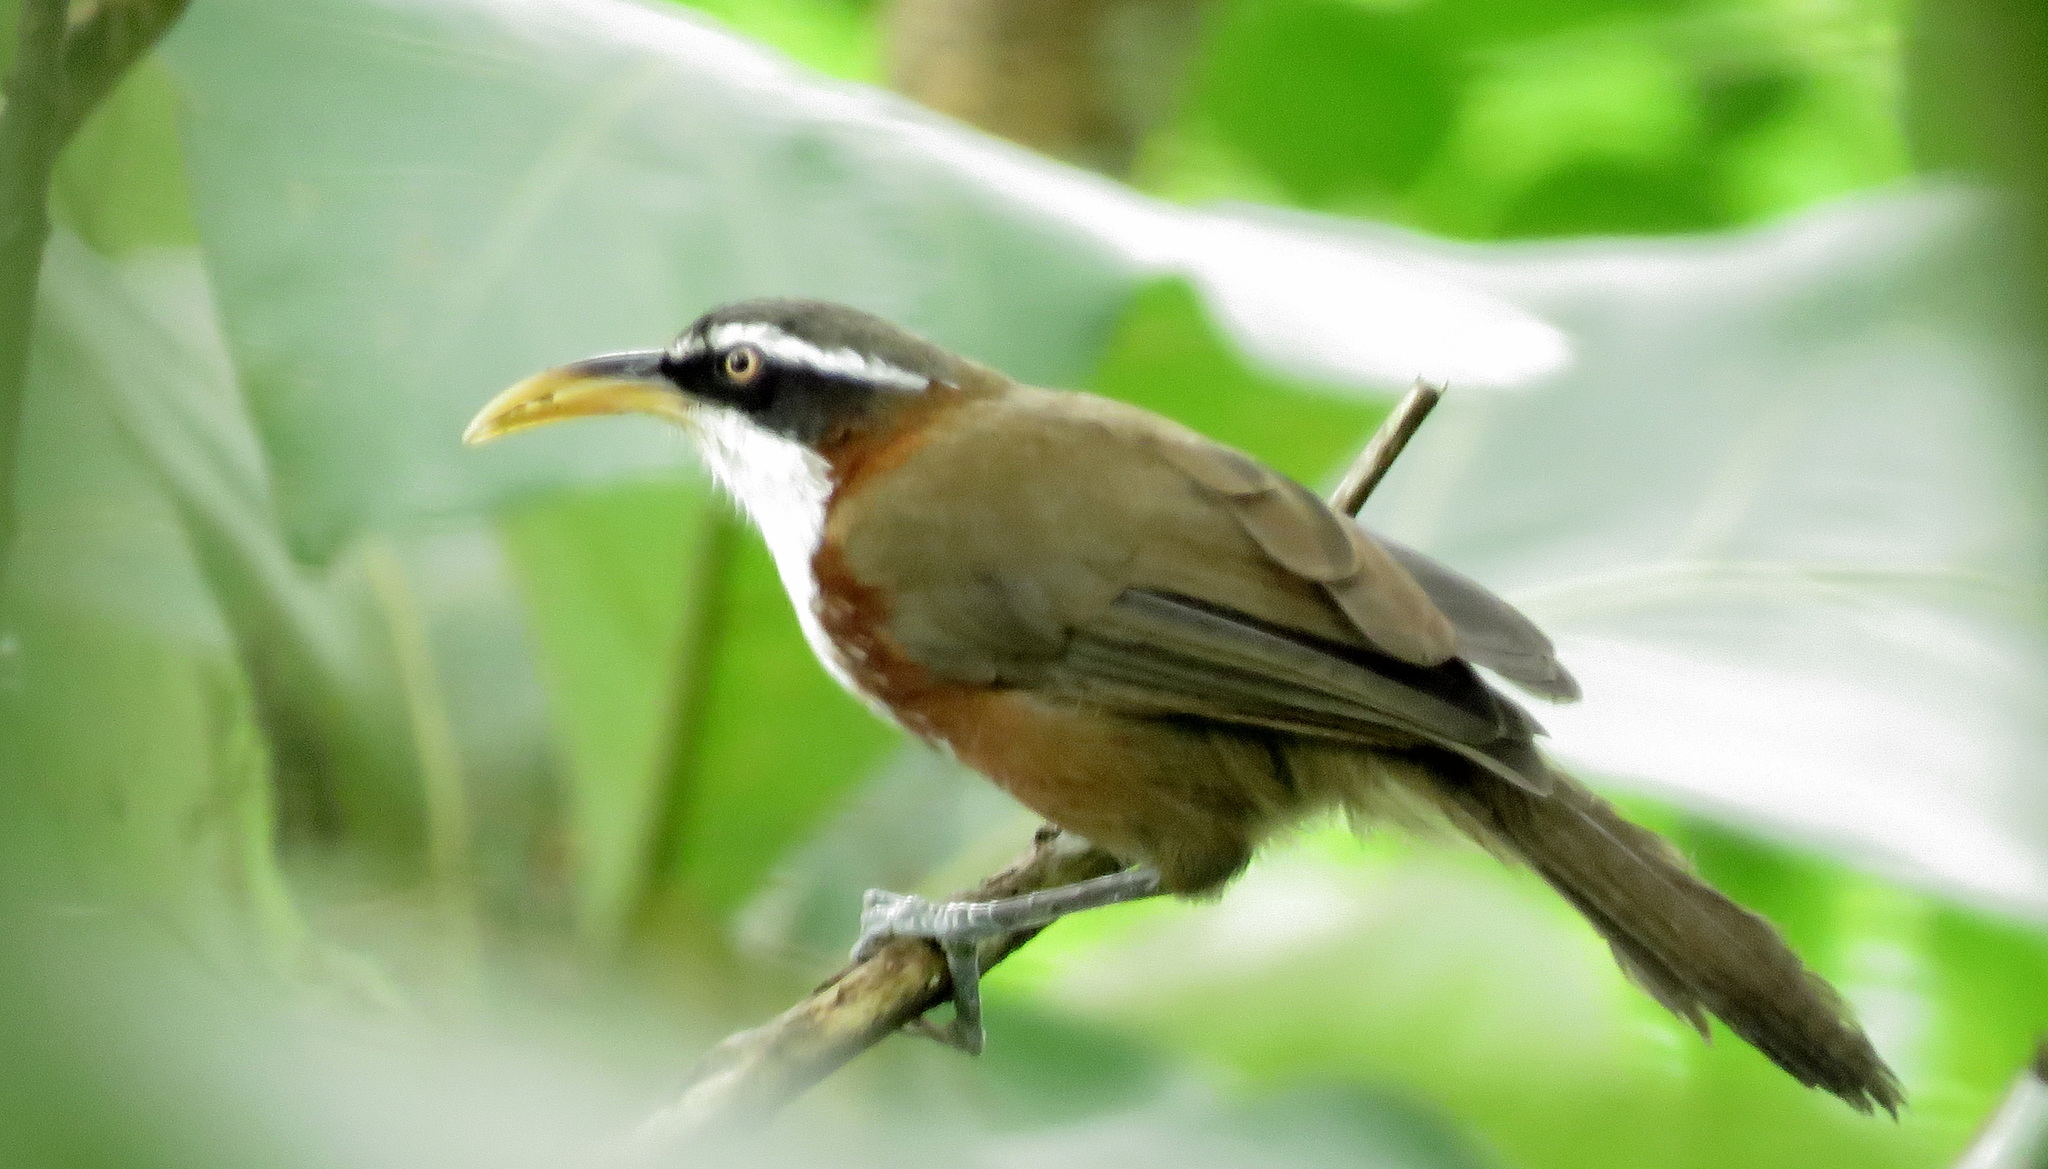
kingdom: Animalia
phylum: Chordata
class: Aves
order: Passeriformes
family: Timaliidae
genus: Pomatorhinus
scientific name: Pomatorhinus schisticeps
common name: White-browed scimitar babbler
